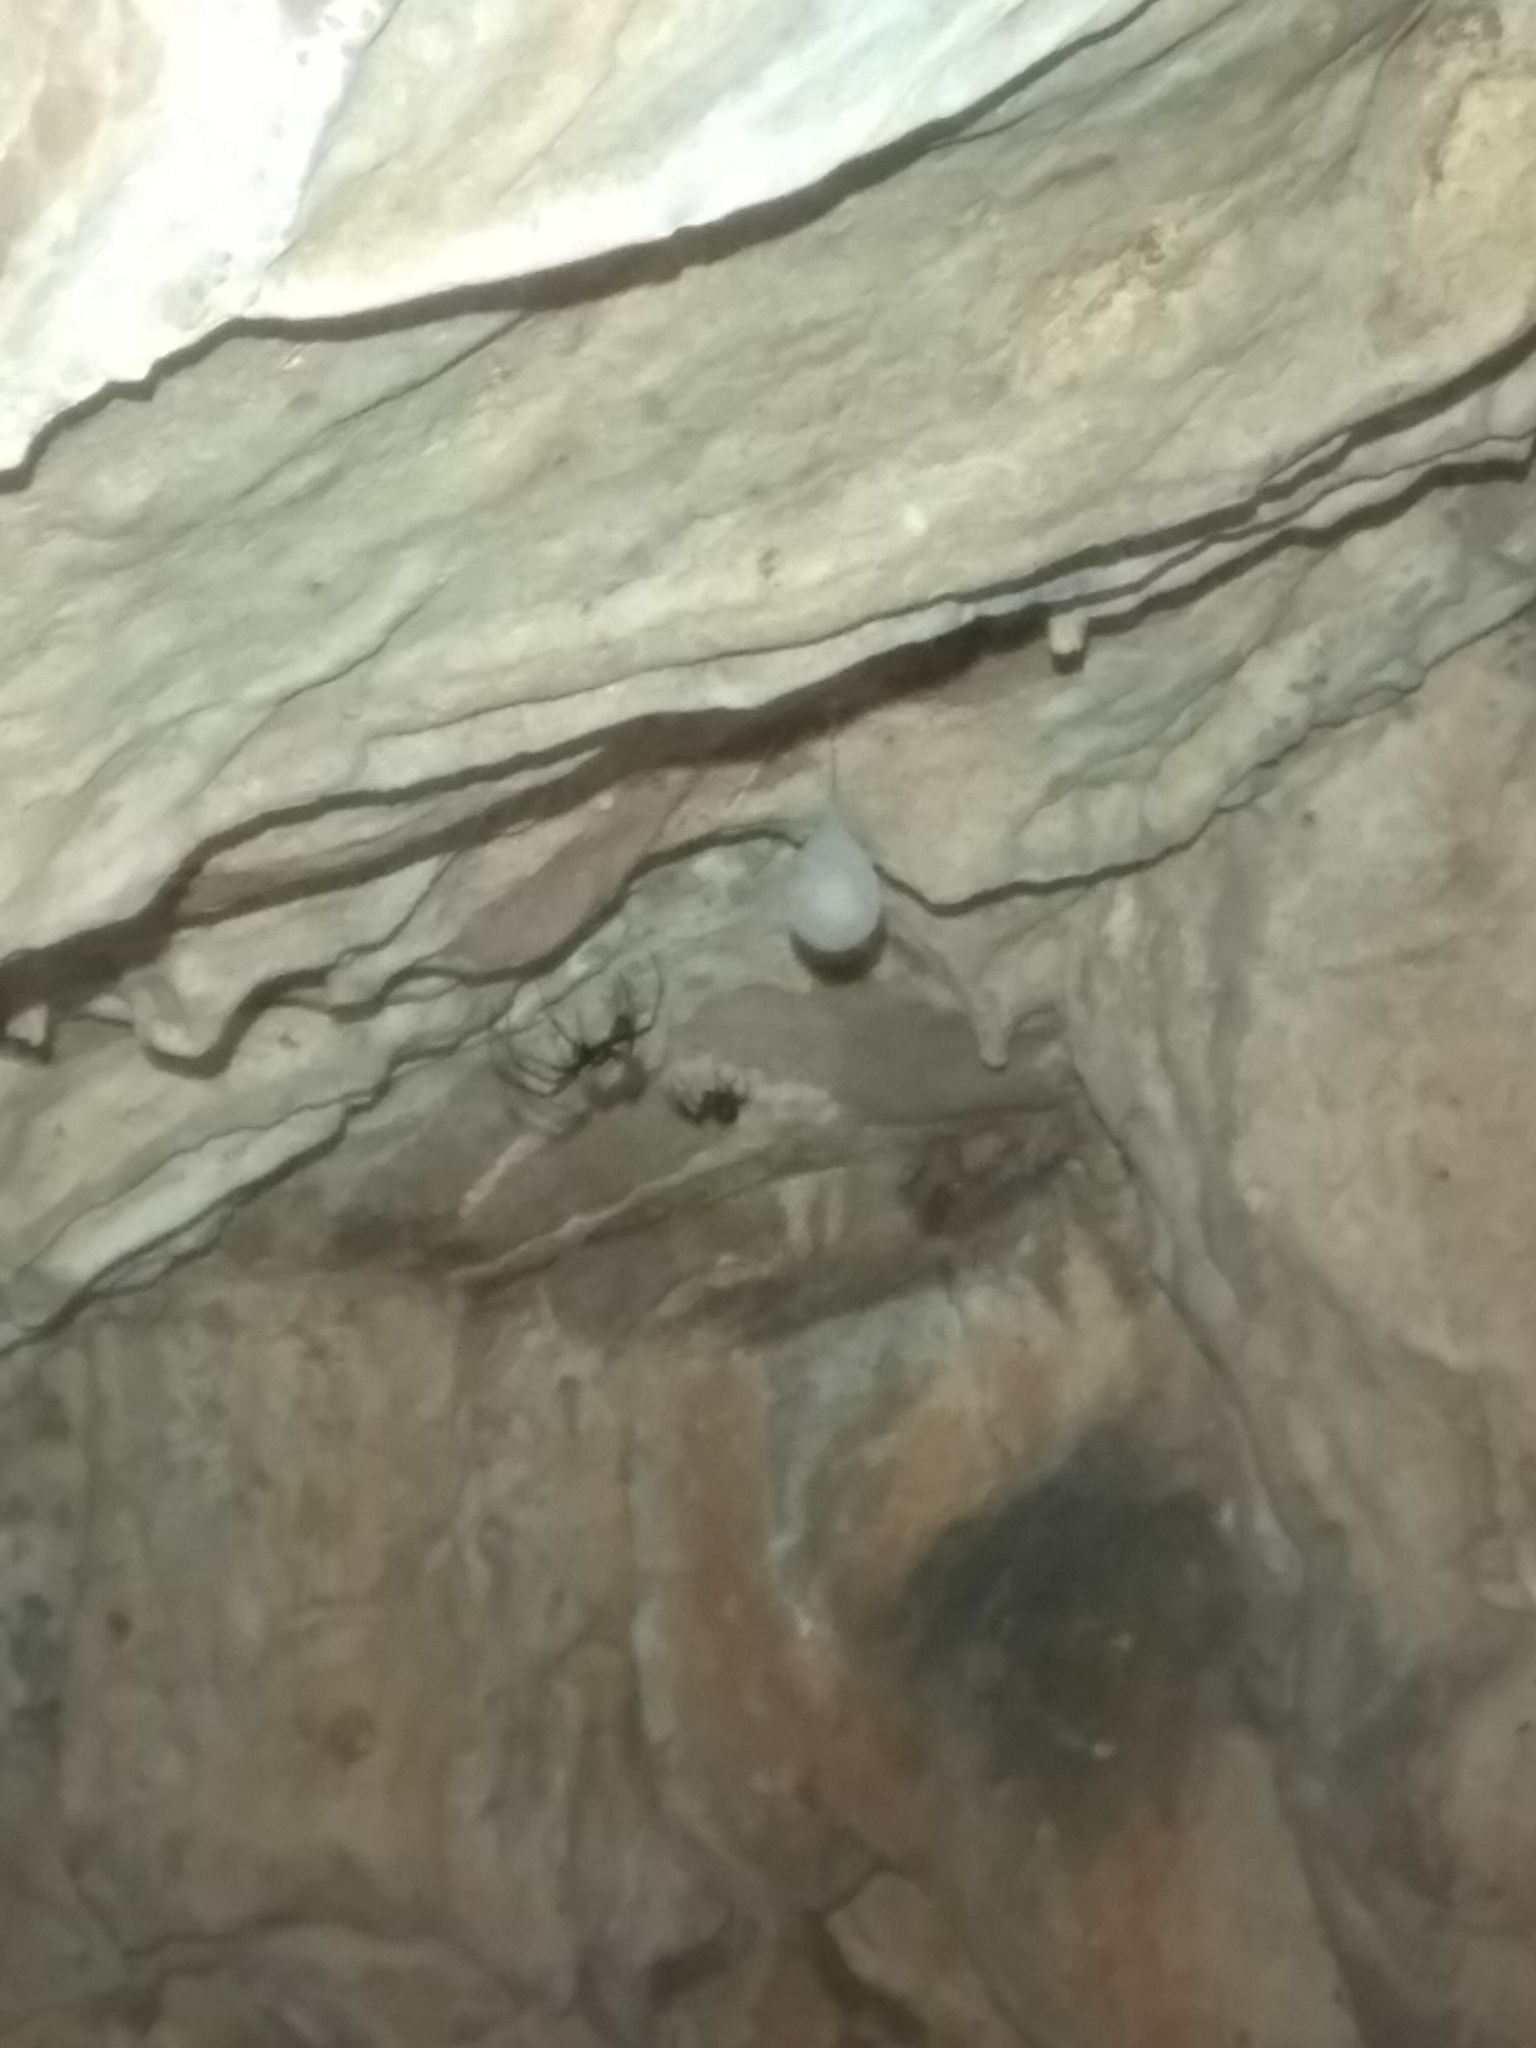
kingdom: Animalia
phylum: Arthropoda
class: Arachnida
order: Araneae
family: Tetragnathidae
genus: Meta
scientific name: Meta menardi
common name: Cave spider
